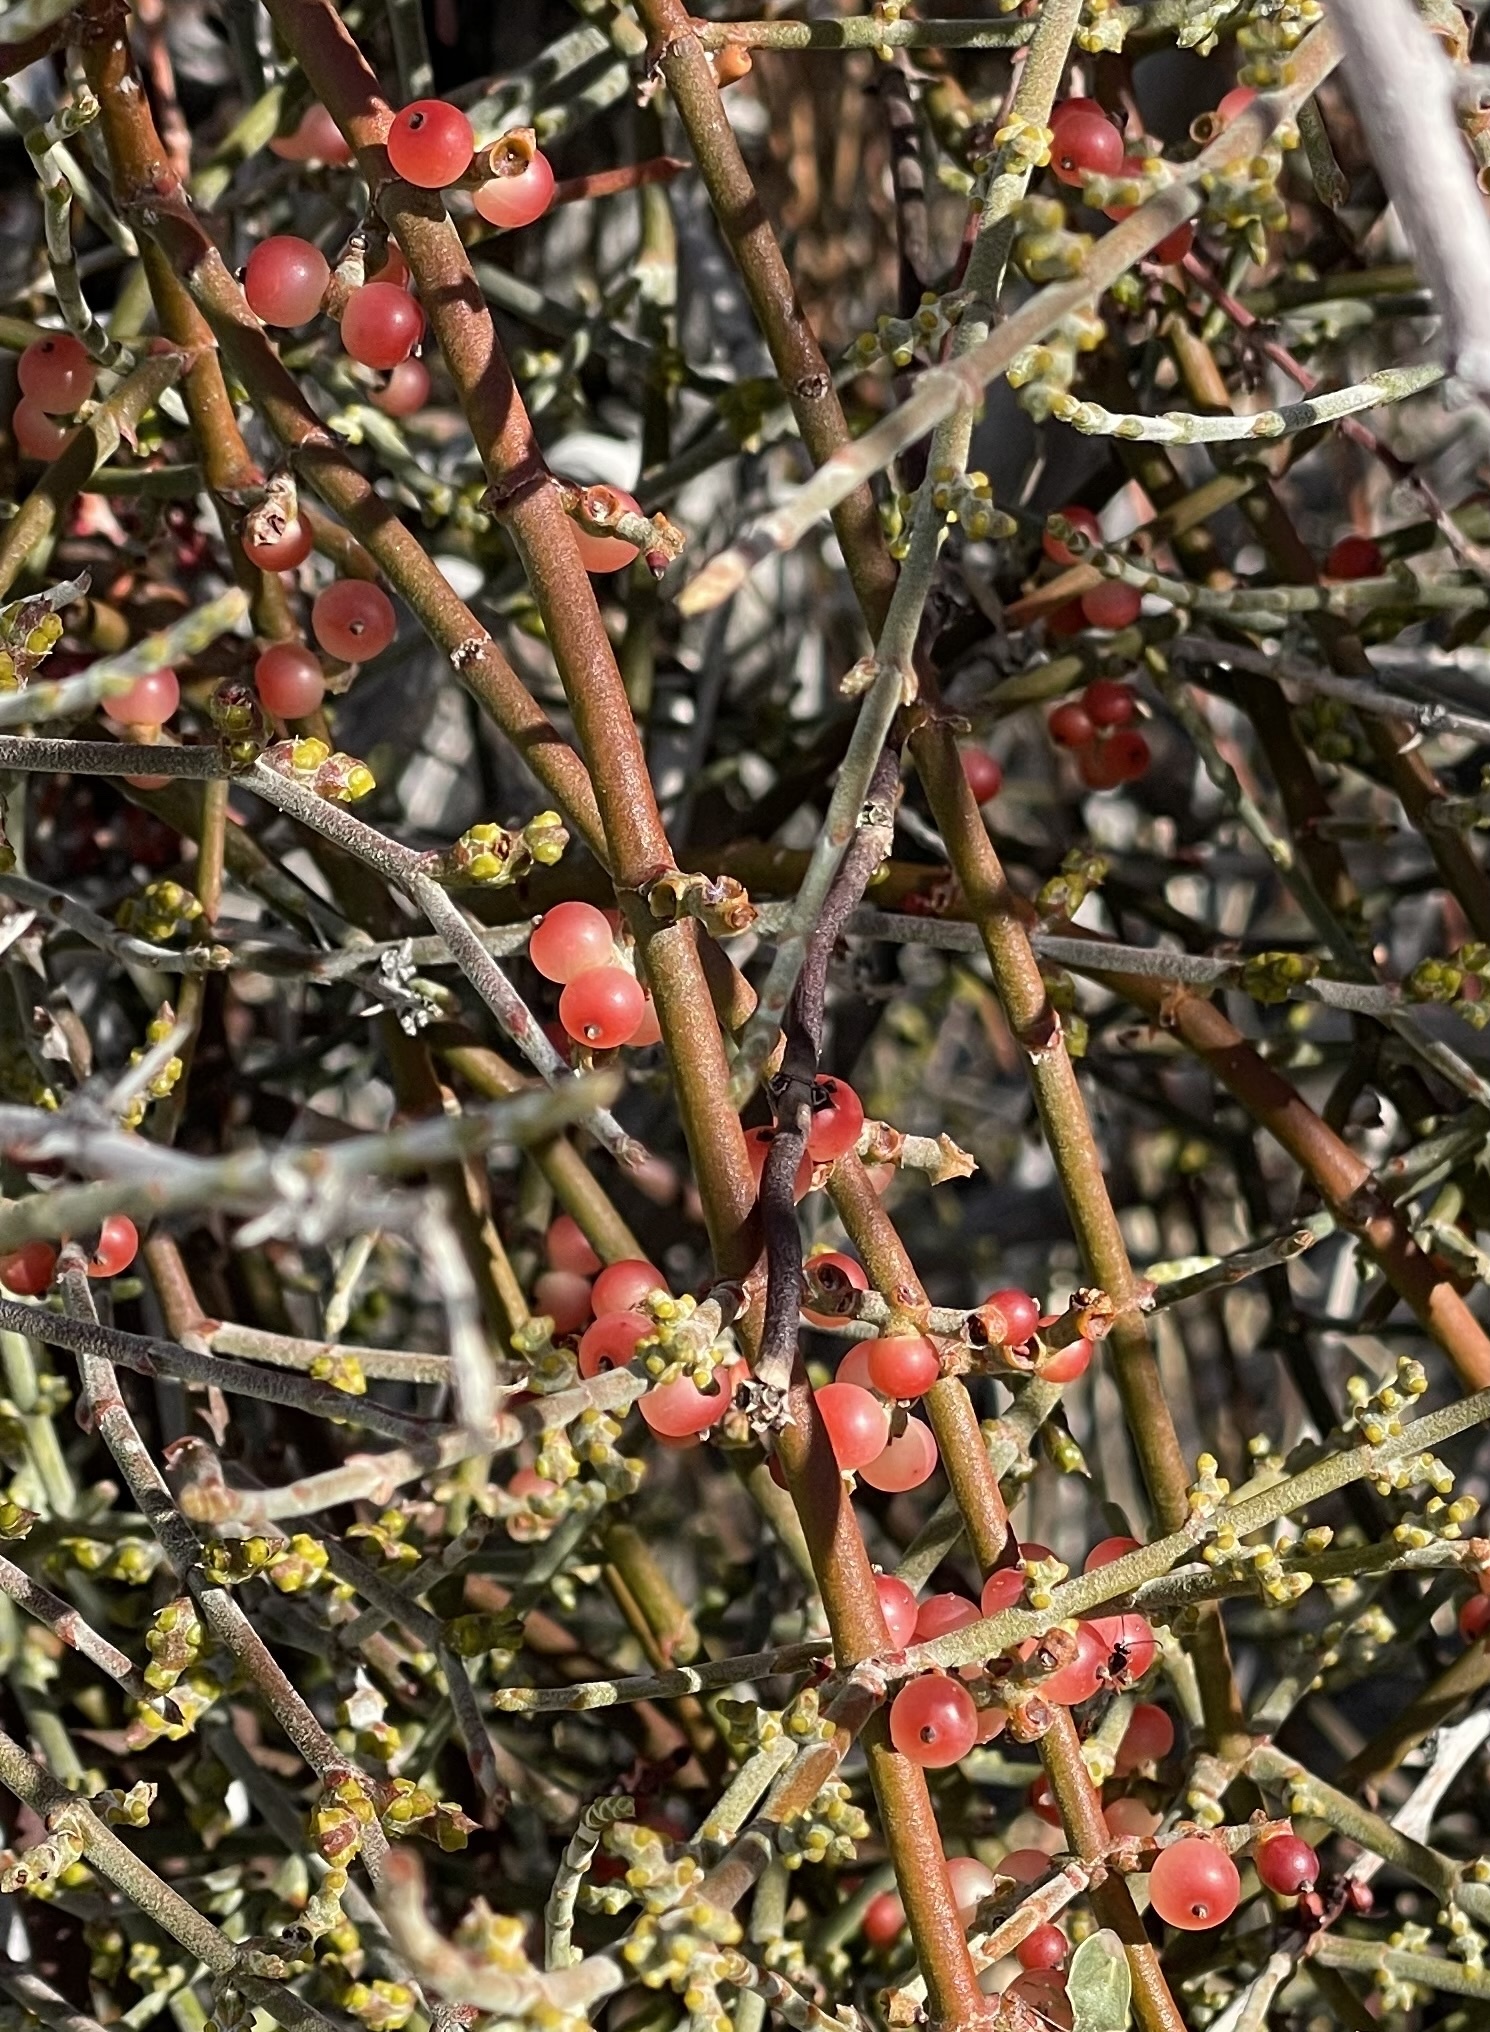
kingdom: Plantae
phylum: Tracheophyta
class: Magnoliopsida
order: Santalales
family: Viscaceae
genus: Phoradendron
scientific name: Phoradendron californicum
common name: Acacia mistletoe
